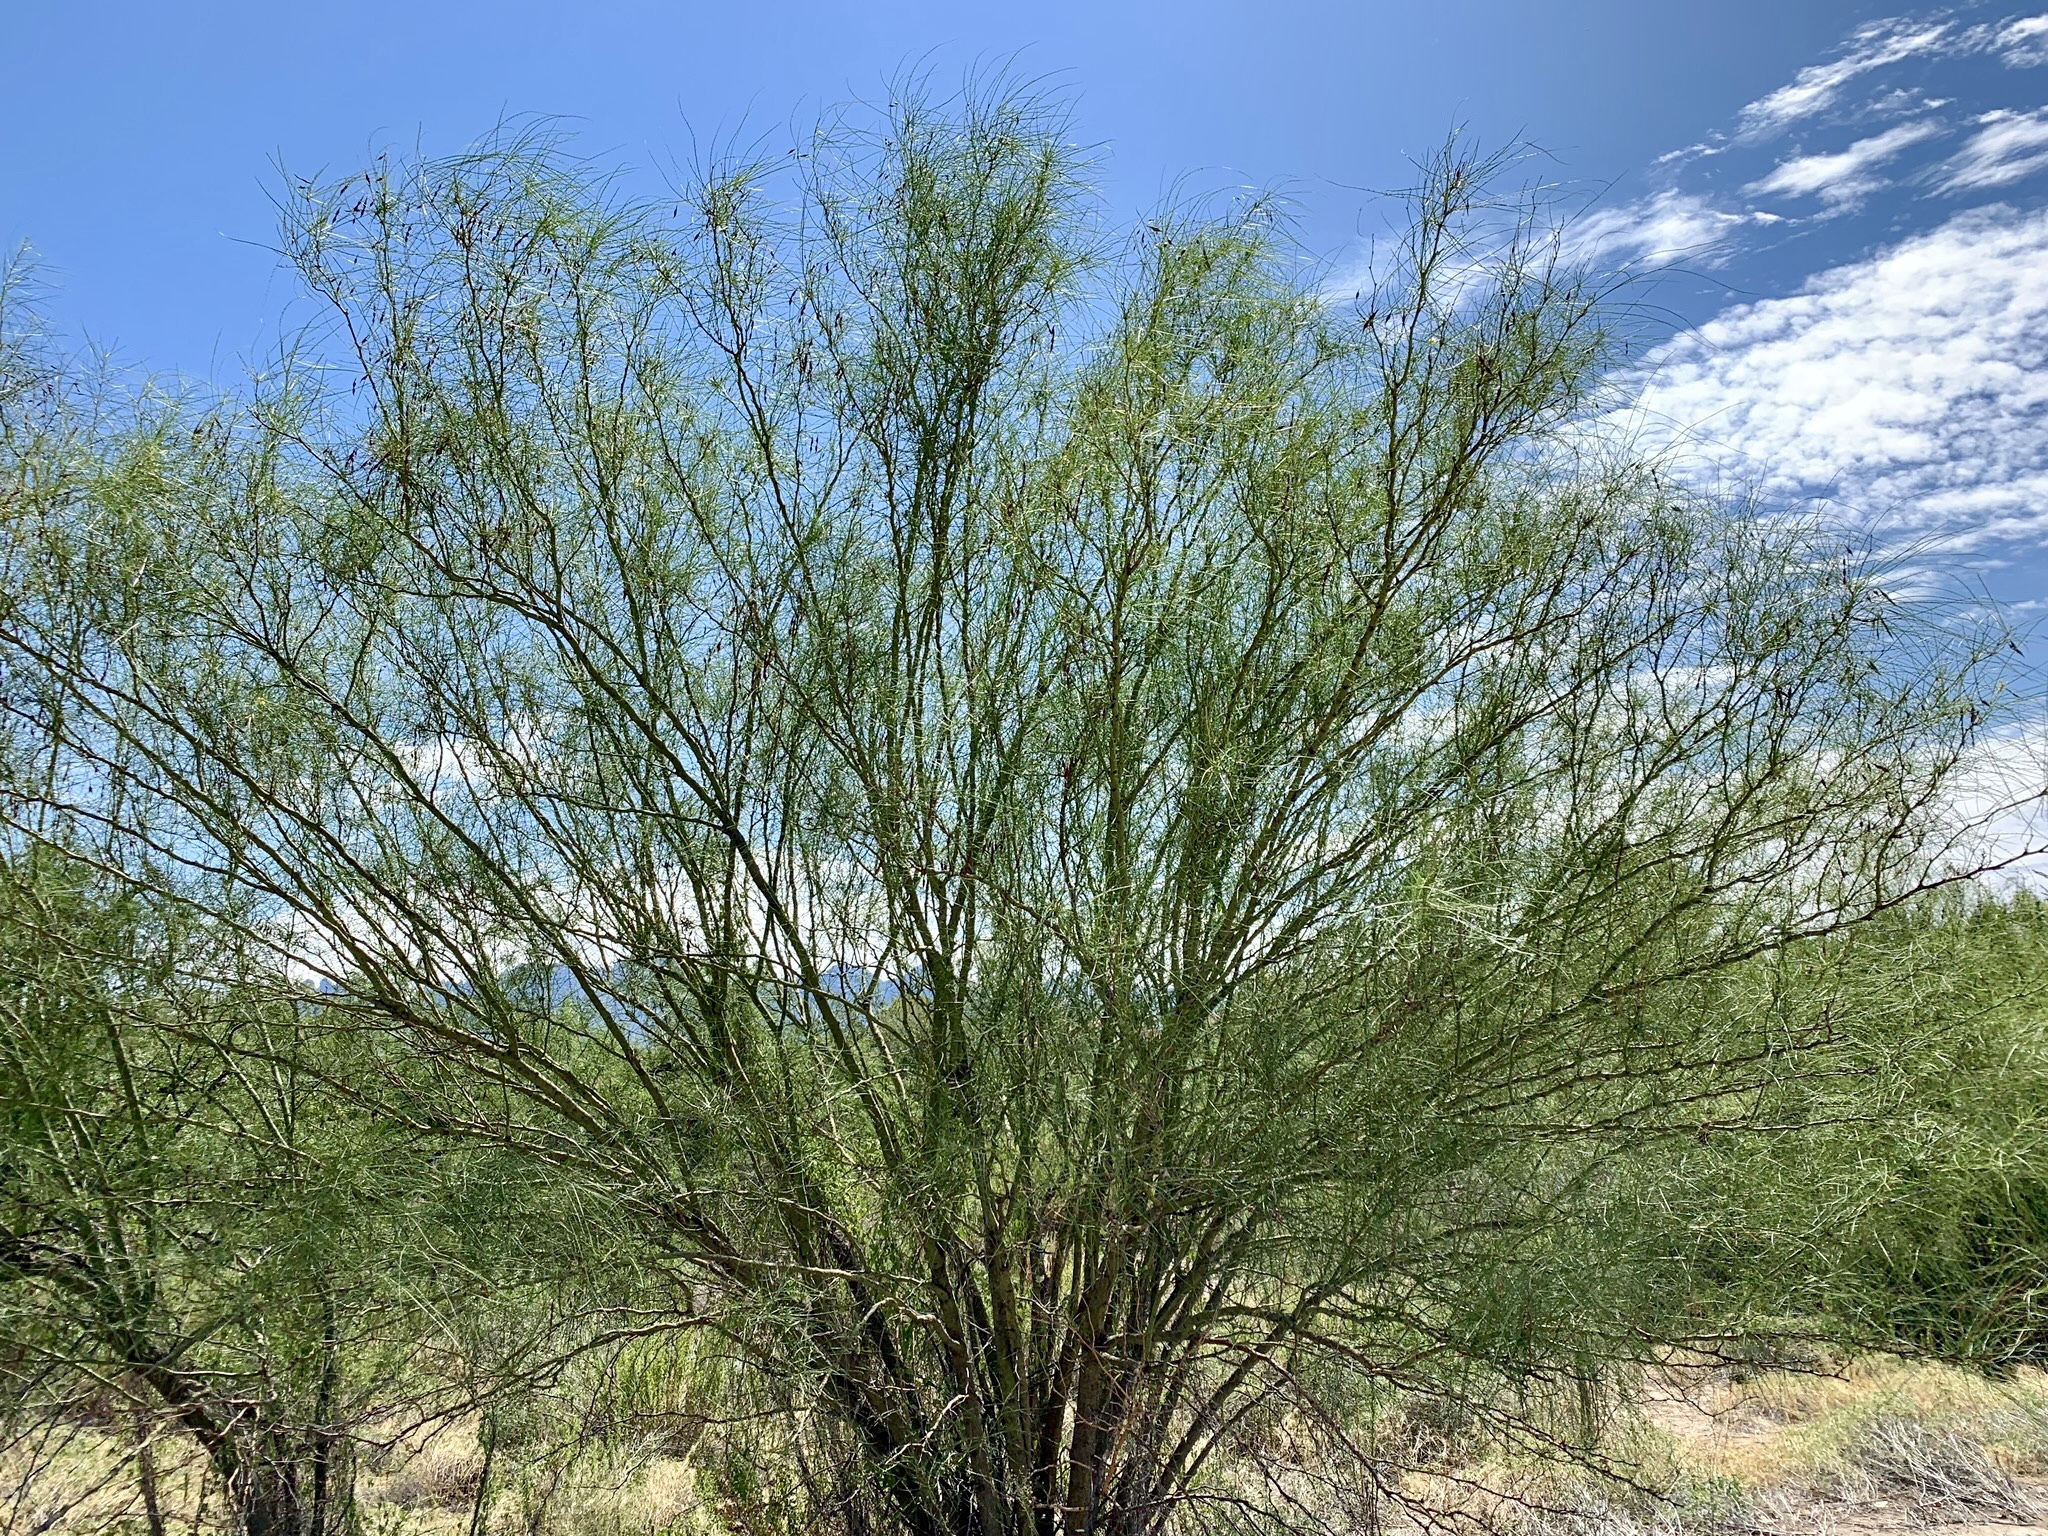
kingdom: Plantae
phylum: Tracheophyta
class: Magnoliopsida
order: Fabales
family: Fabaceae
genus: Parkinsonia
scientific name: Parkinsonia aculeata
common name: Jerusalem thorn
